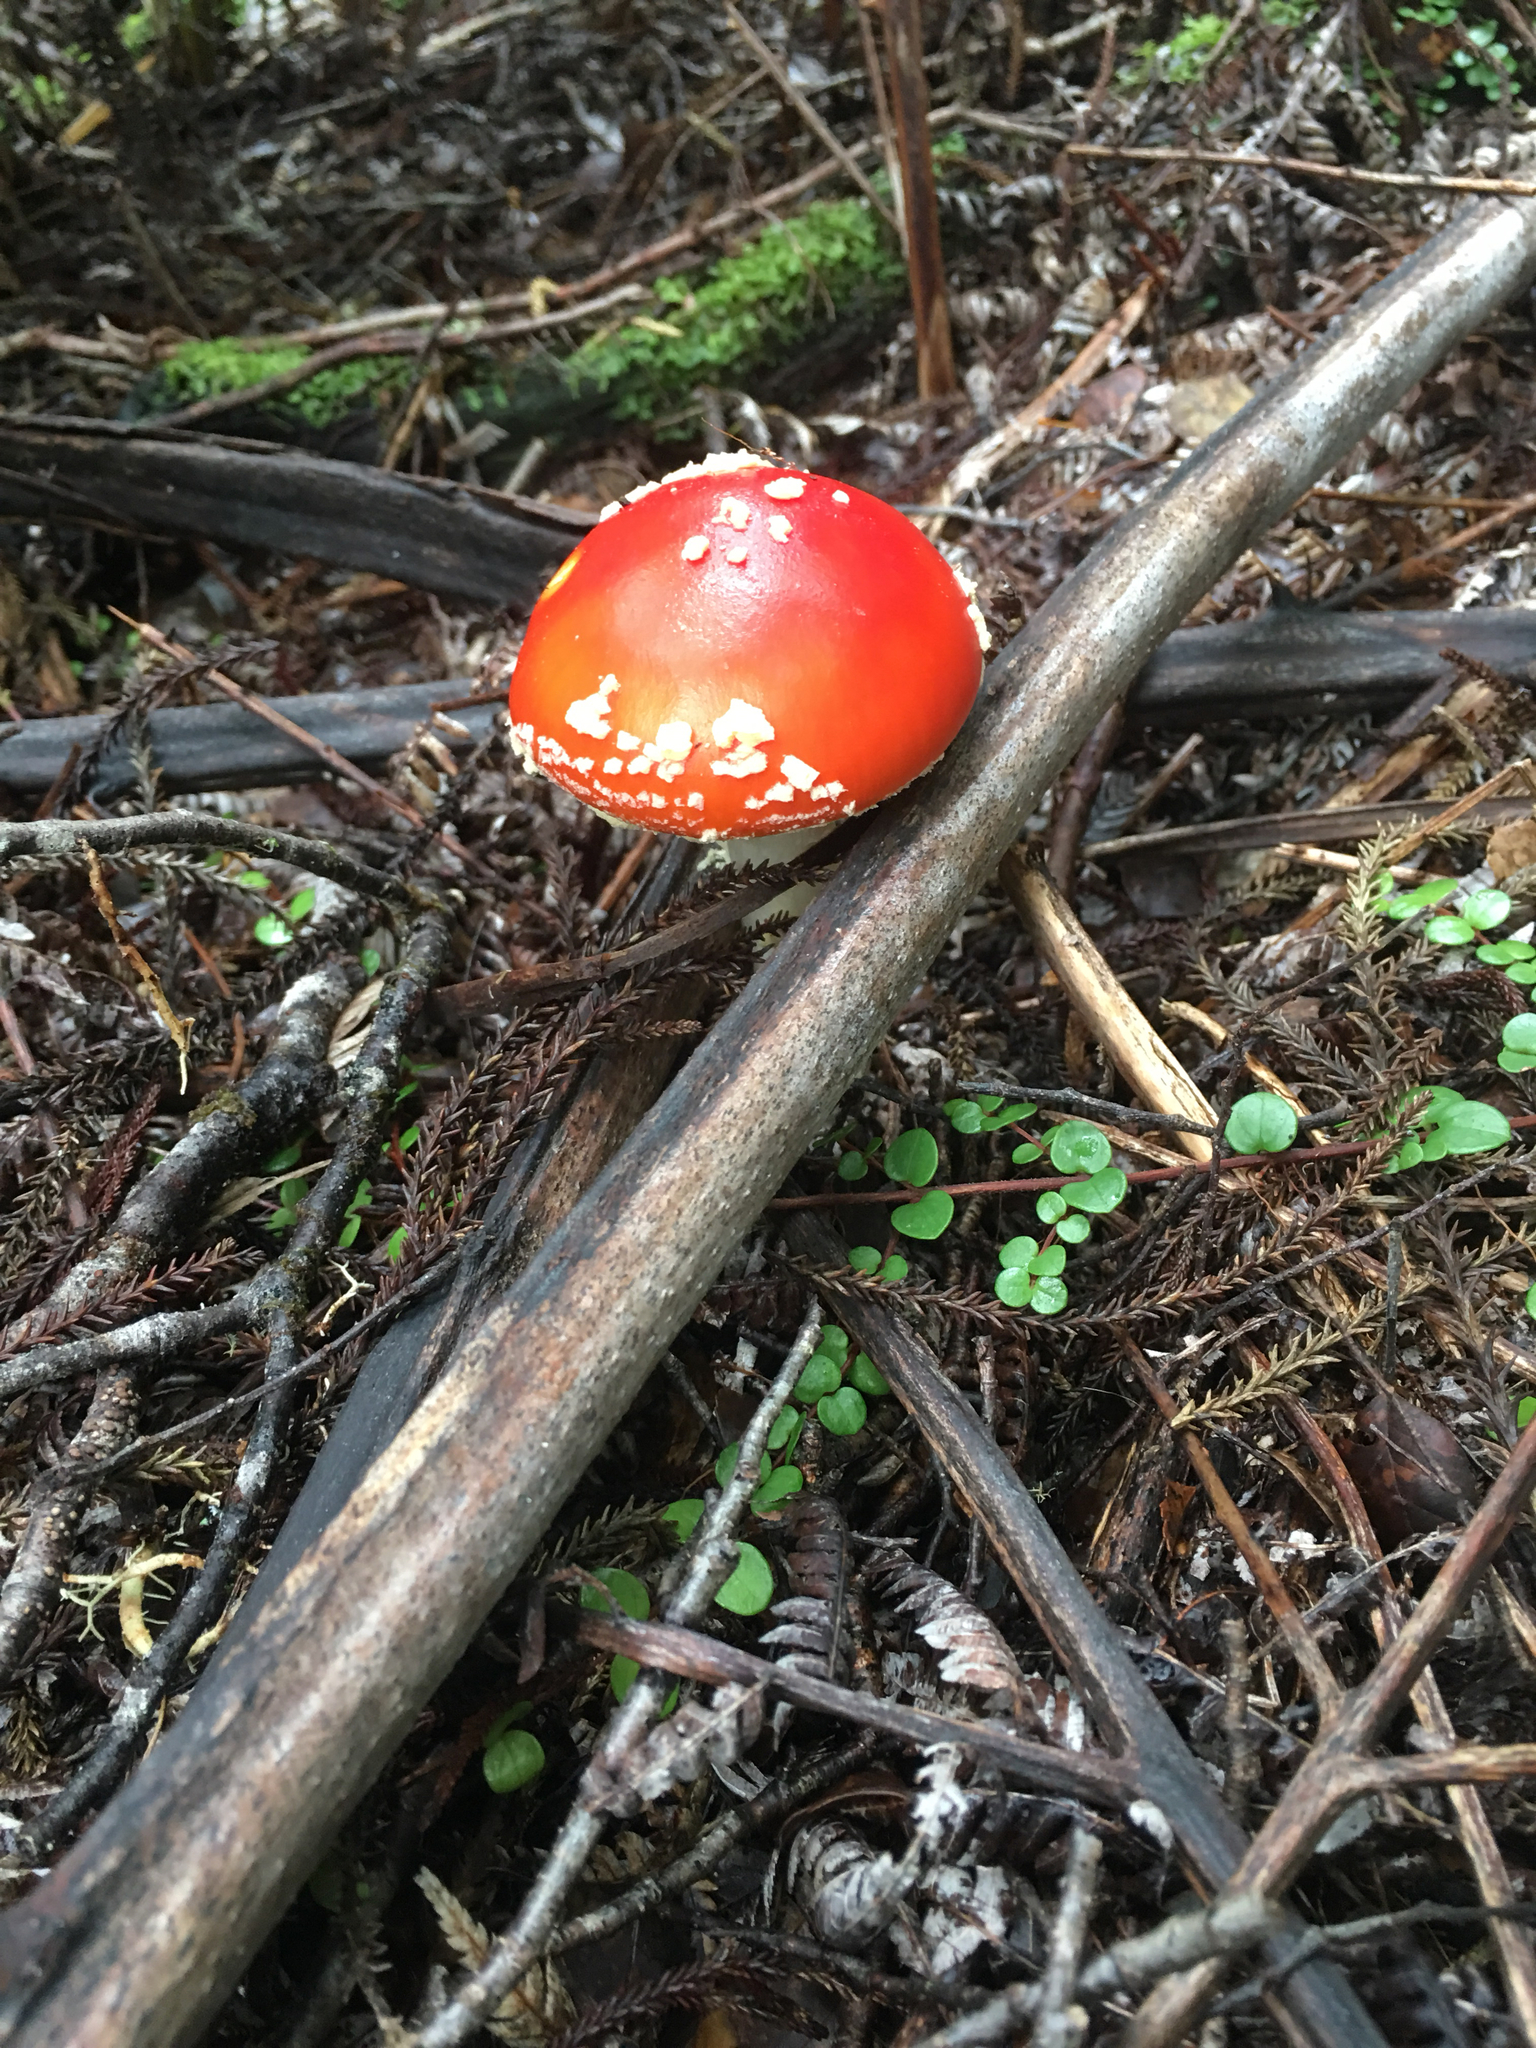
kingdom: Fungi
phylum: Basidiomycota
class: Agaricomycetes
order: Agaricales
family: Amanitaceae
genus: Amanita
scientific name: Amanita muscaria
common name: Fly agaric
